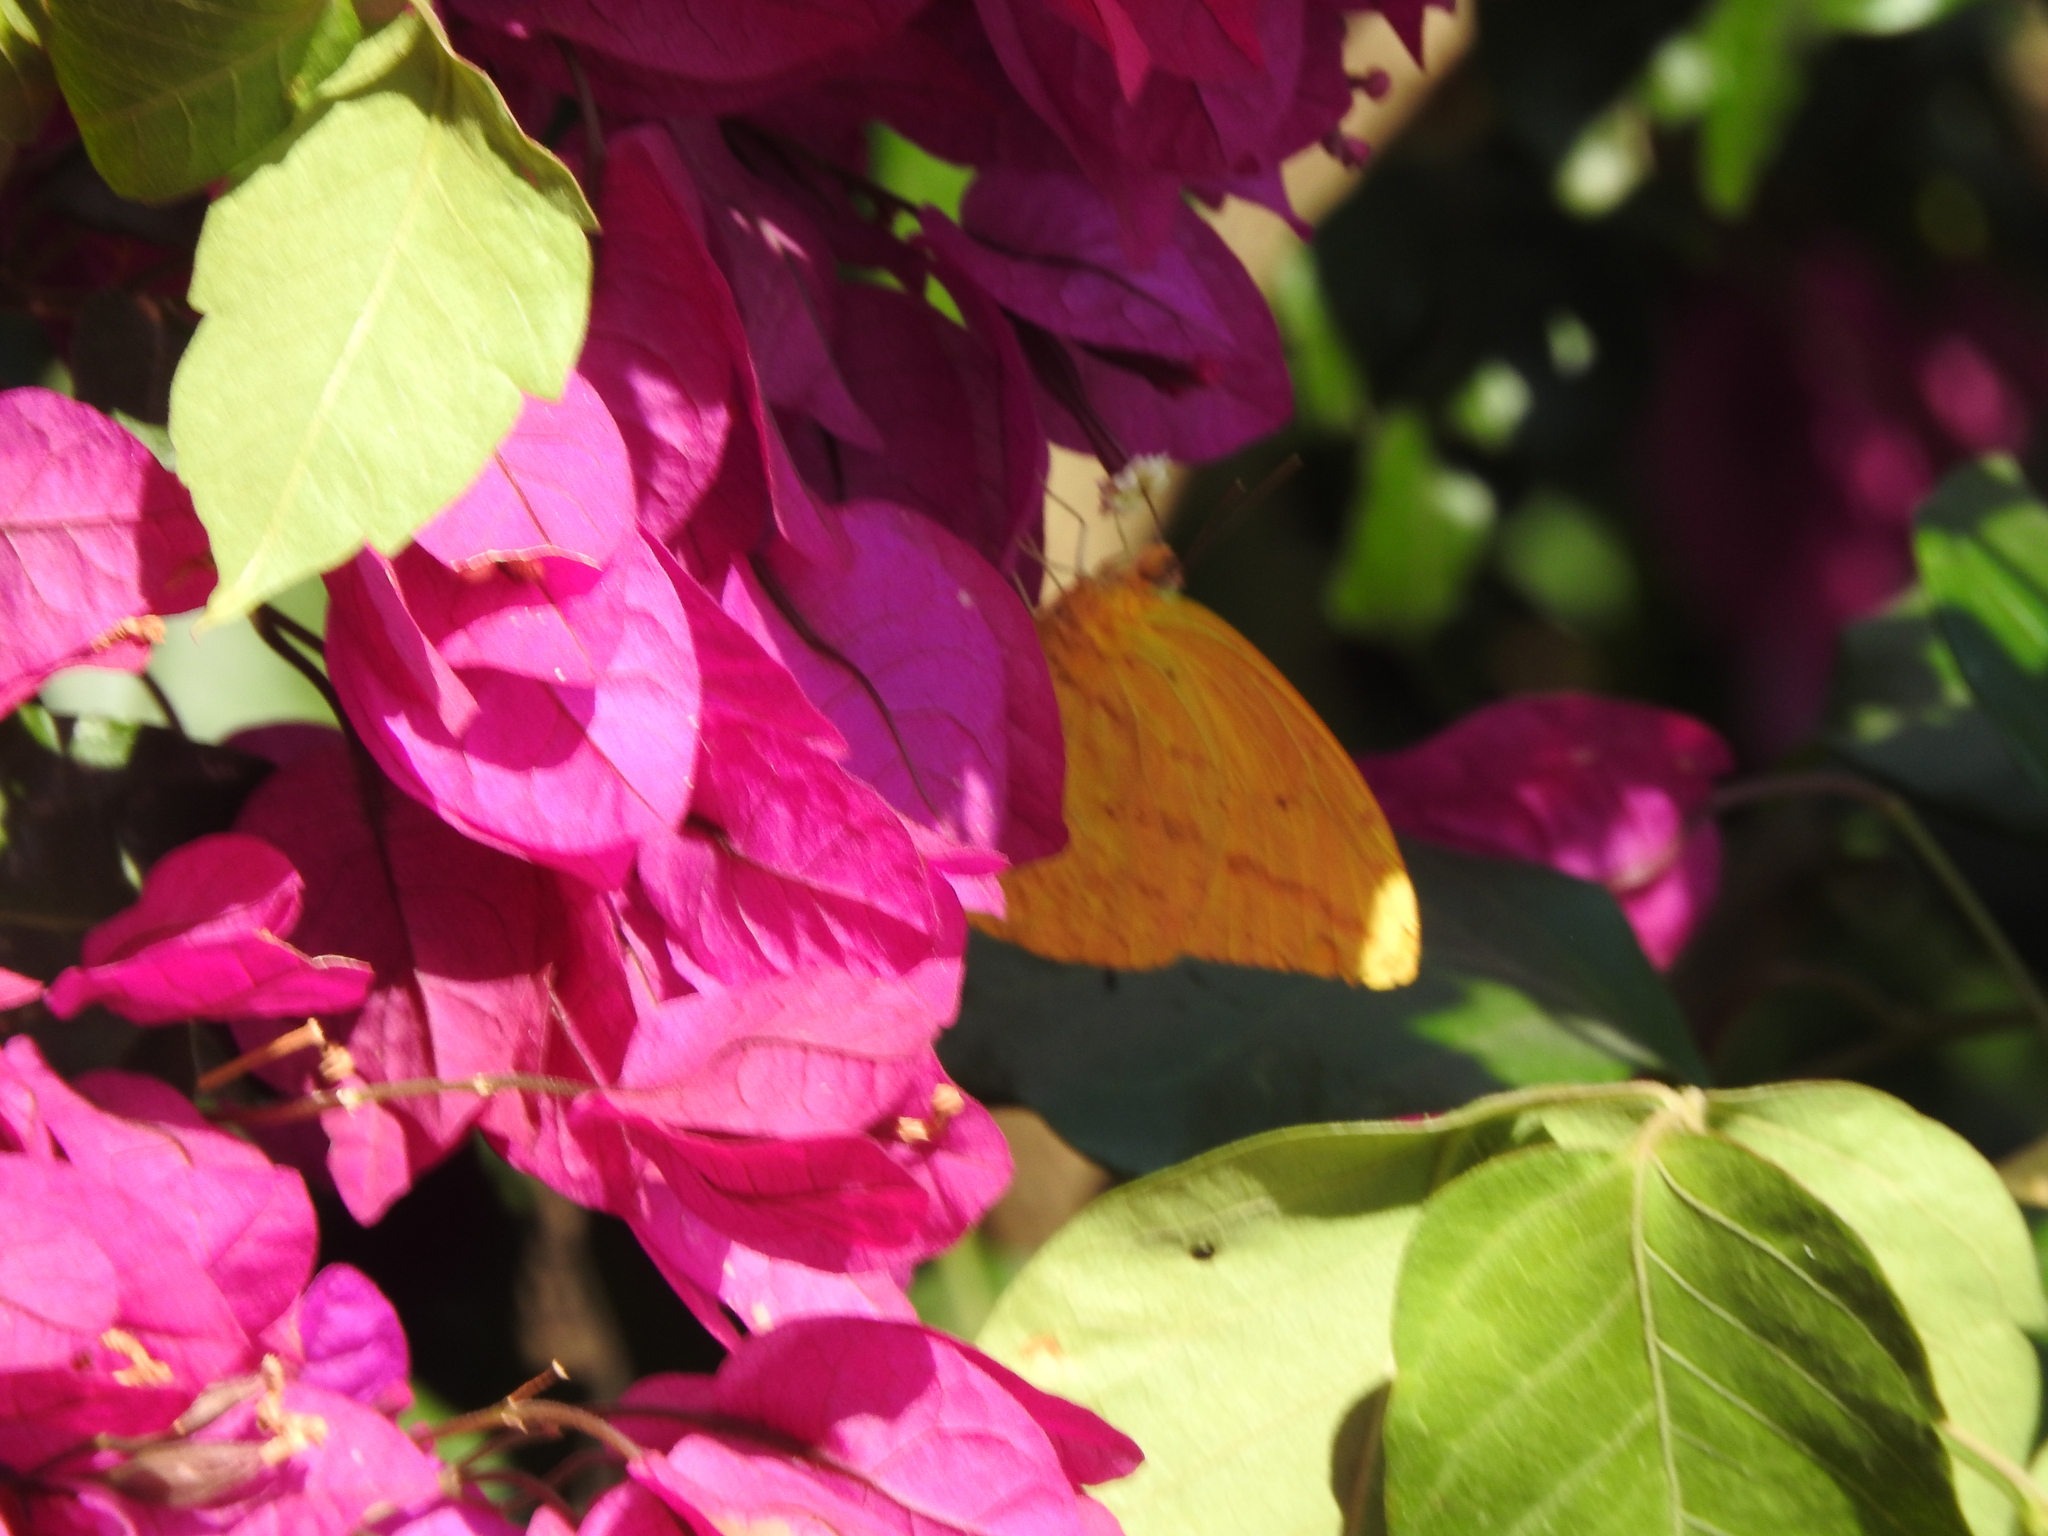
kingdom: Animalia
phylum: Arthropoda
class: Insecta
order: Lepidoptera
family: Pieridae
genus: Phoebis
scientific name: Phoebis agarithe
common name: Large orange sulphur
